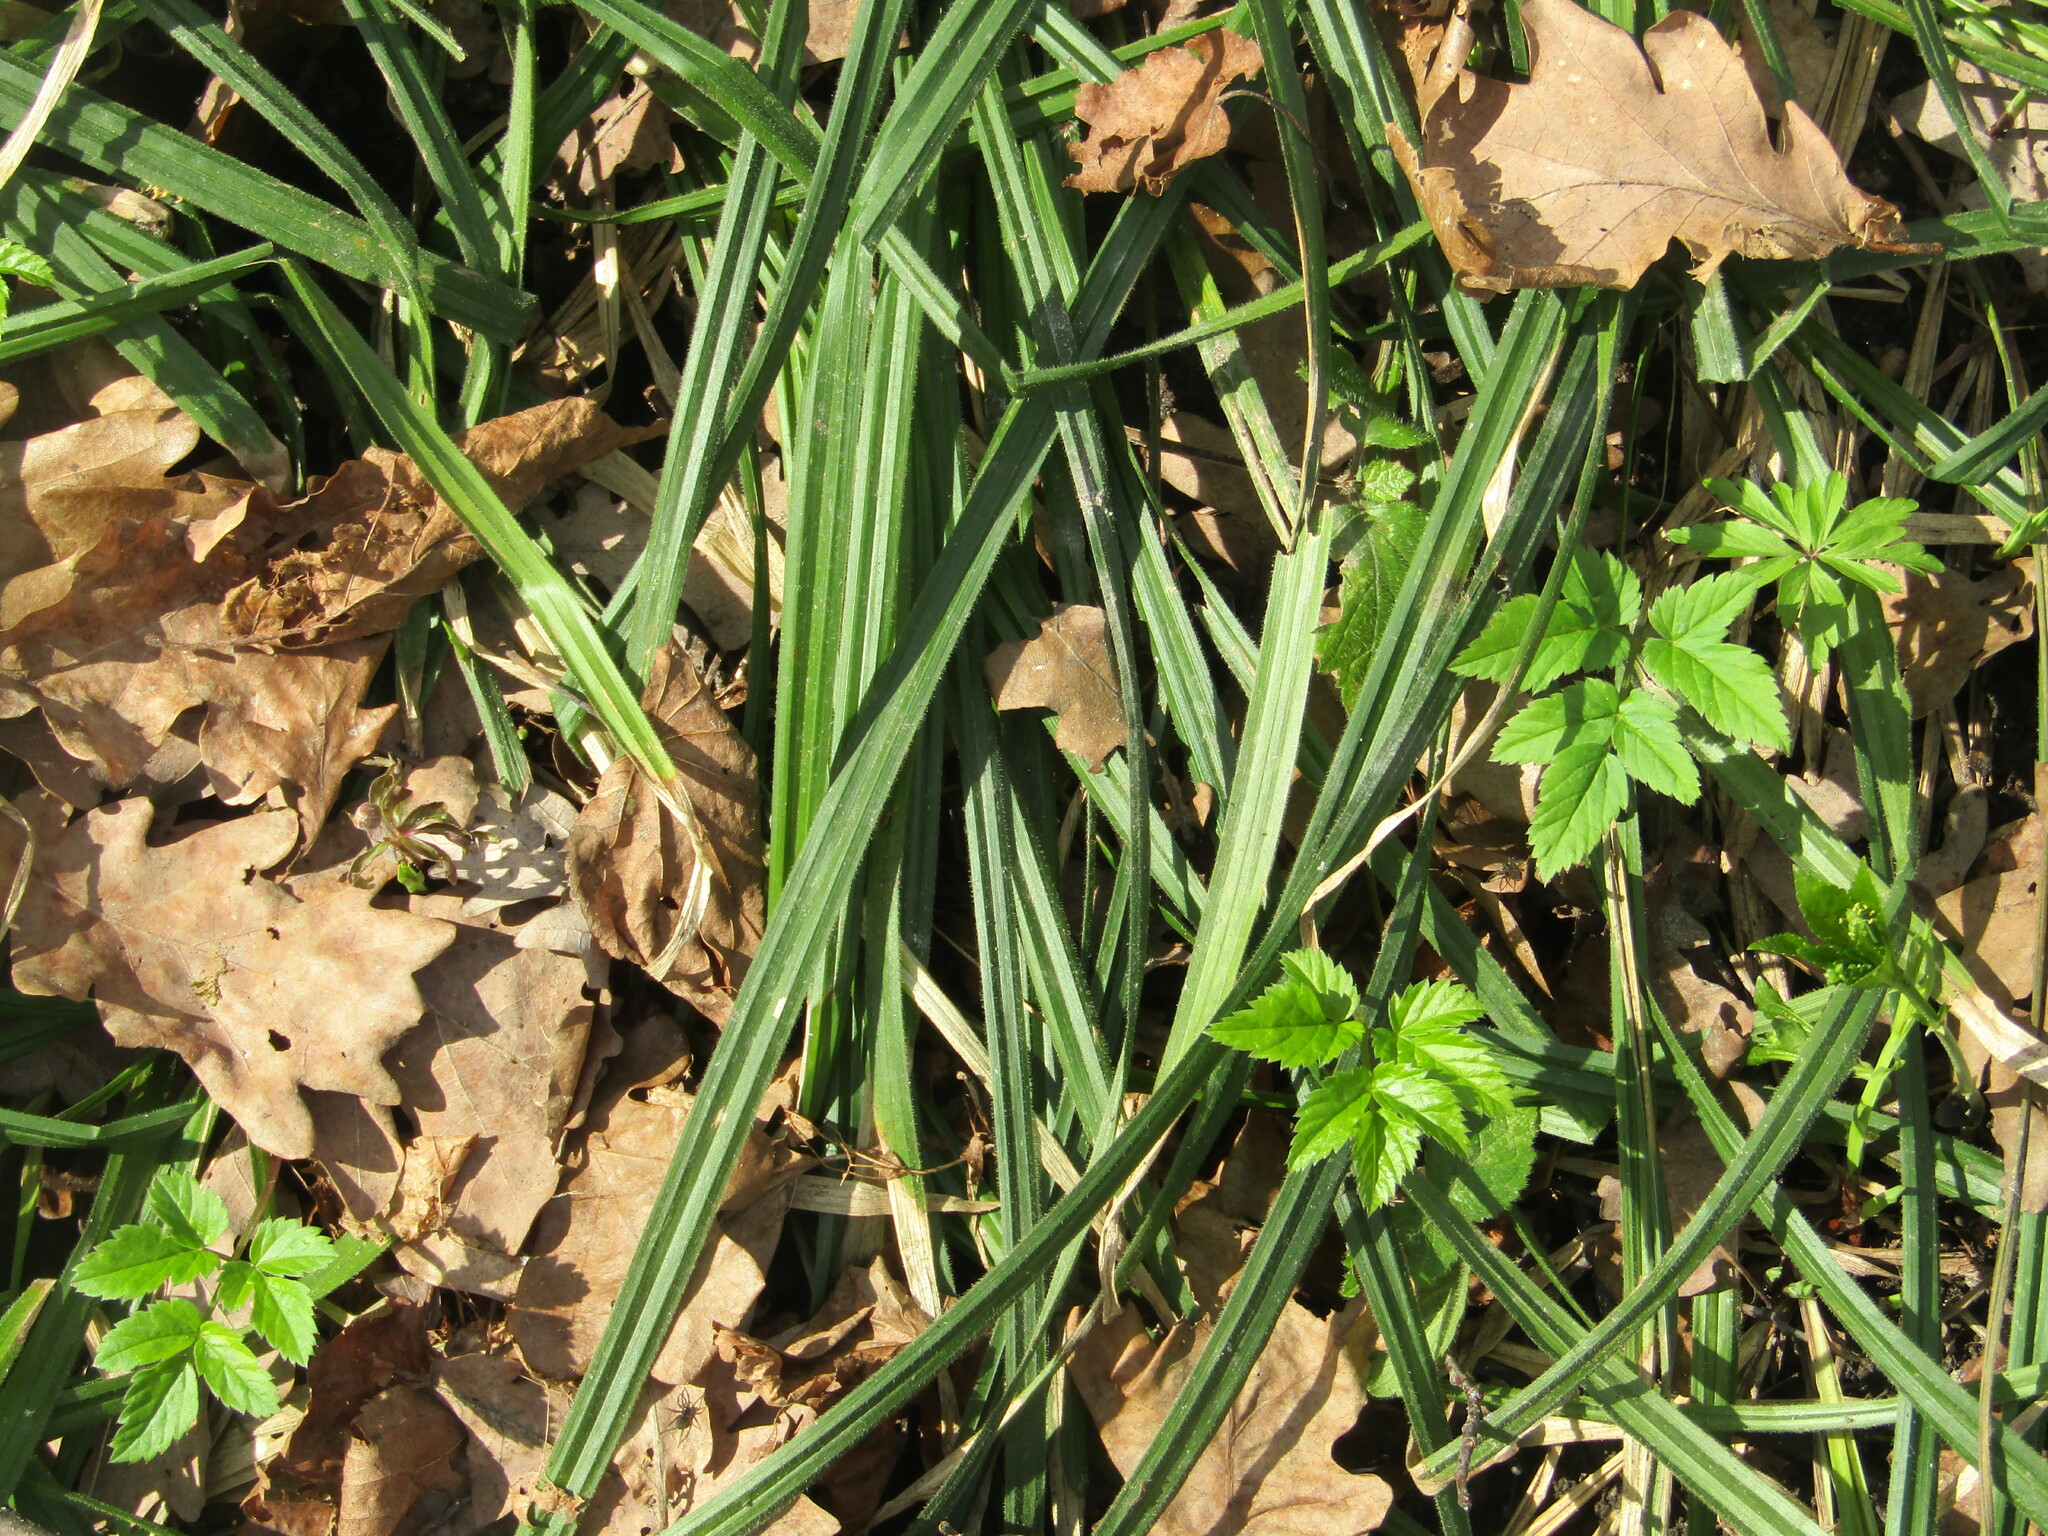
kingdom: Plantae
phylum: Tracheophyta
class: Liliopsida
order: Poales
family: Cyperaceae
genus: Carex
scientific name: Carex pilosa
